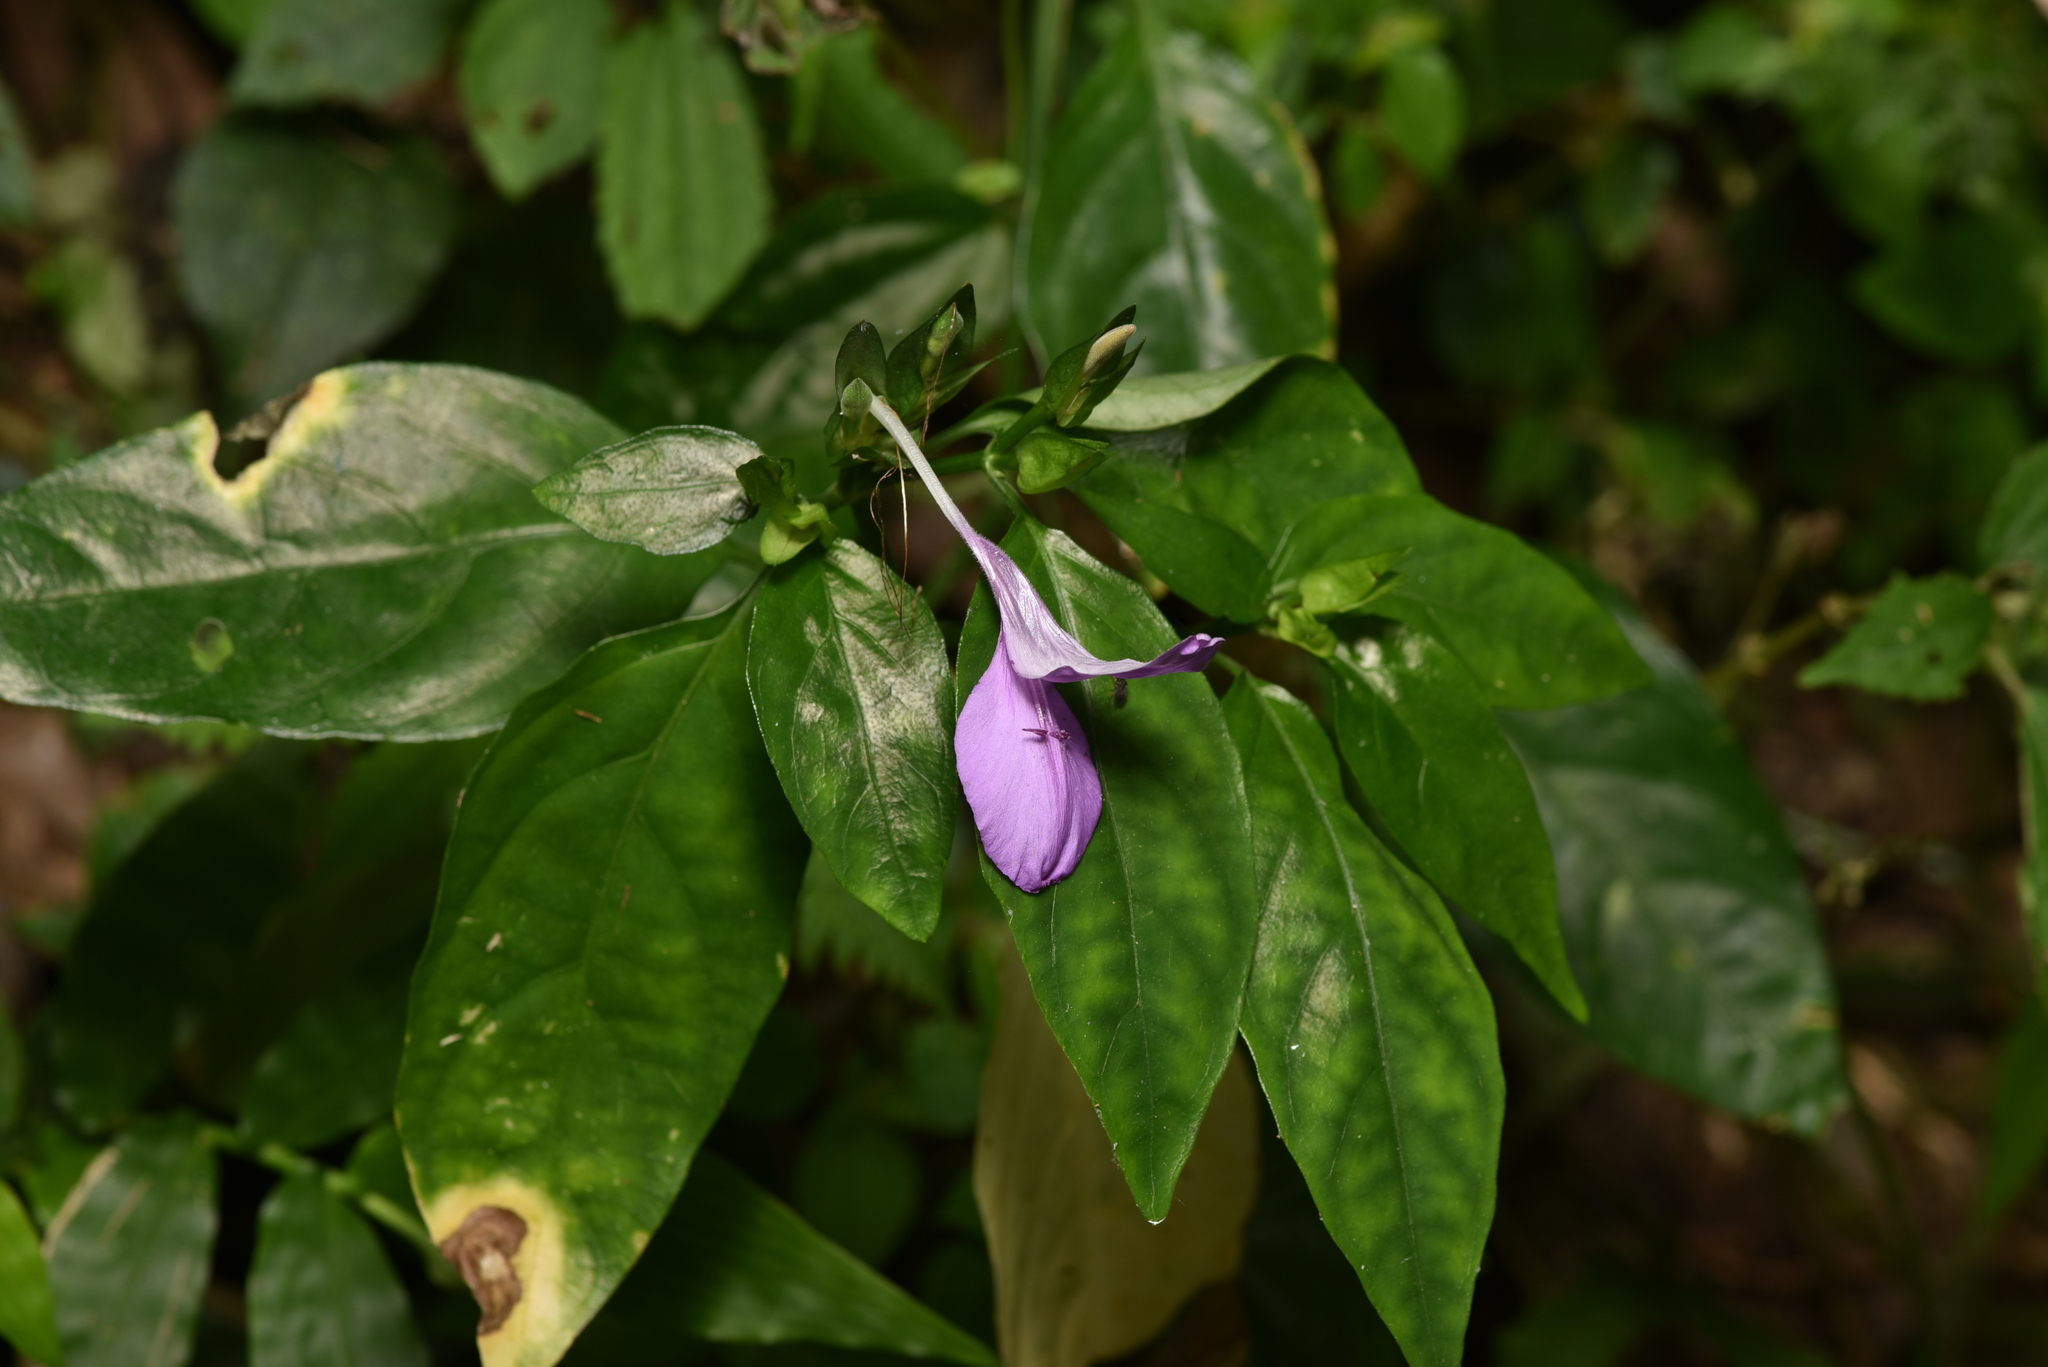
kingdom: Plantae
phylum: Tracheophyta
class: Magnoliopsida
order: Lamiales
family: Acanthaceae
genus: Dicliptera
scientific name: Dicliptera tinctoria
